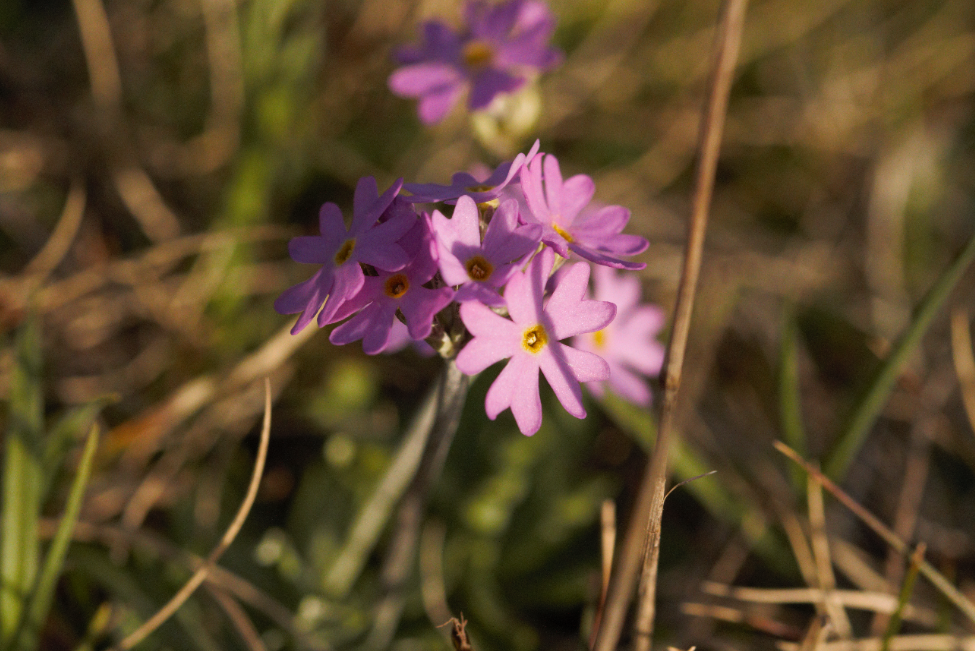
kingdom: Plantae
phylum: Tracheophyta
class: Magnoliopsida
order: Ericales
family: Primulaceae
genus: Primula
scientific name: Primula farinosa
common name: Bird's-eye primrose
